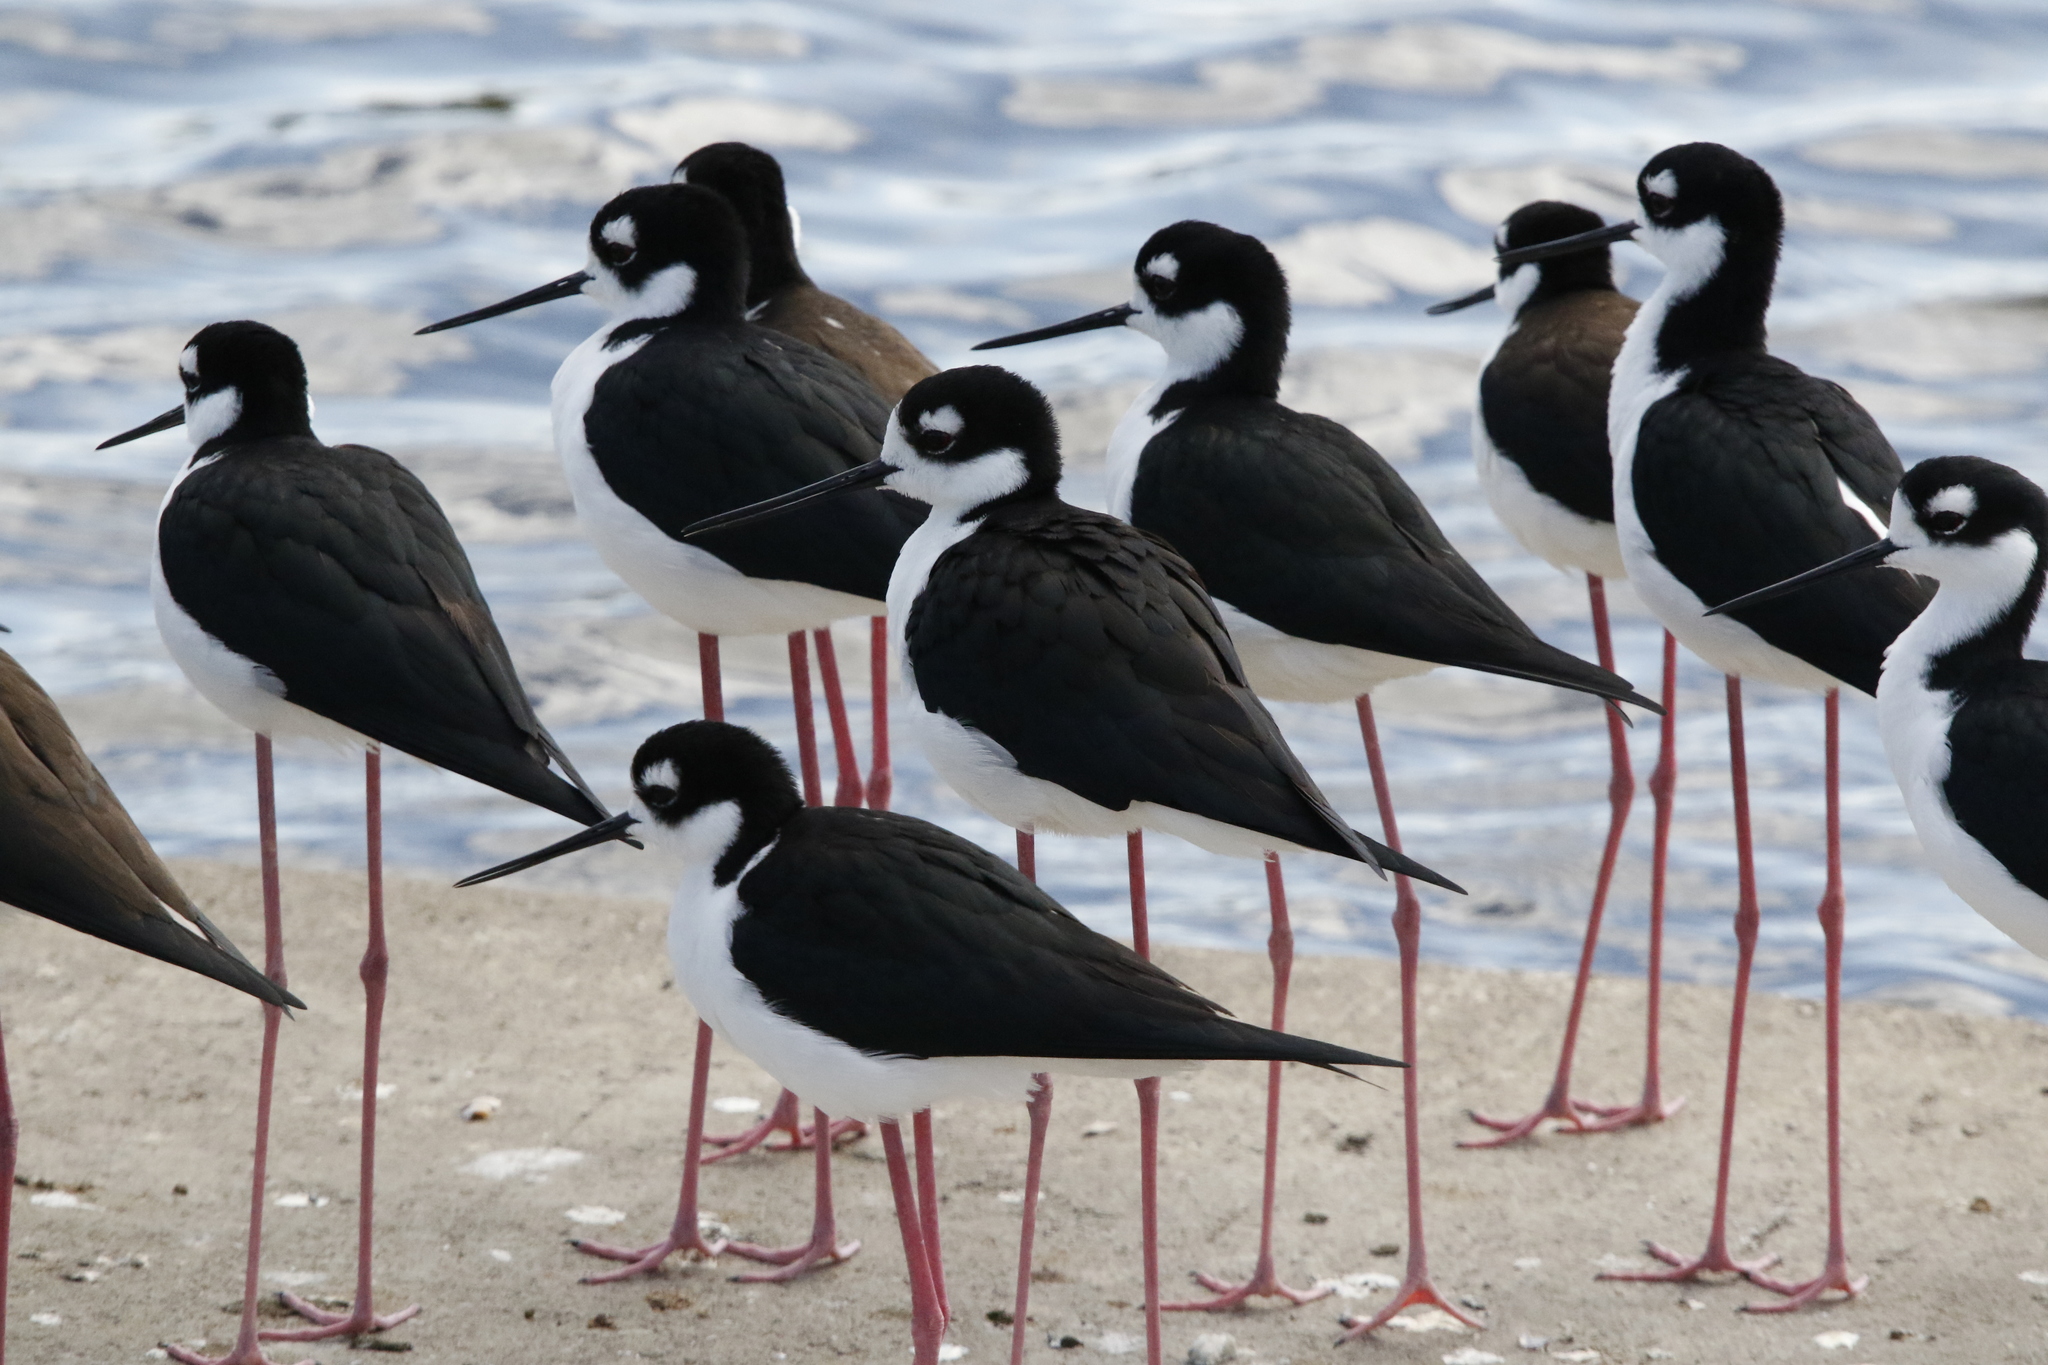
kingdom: Animalia
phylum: Chordata
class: Aves
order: Charadriiformes
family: Recurvirostridae
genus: Himantopus
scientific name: Himantopus mexicanus
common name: Black-necked stilt
